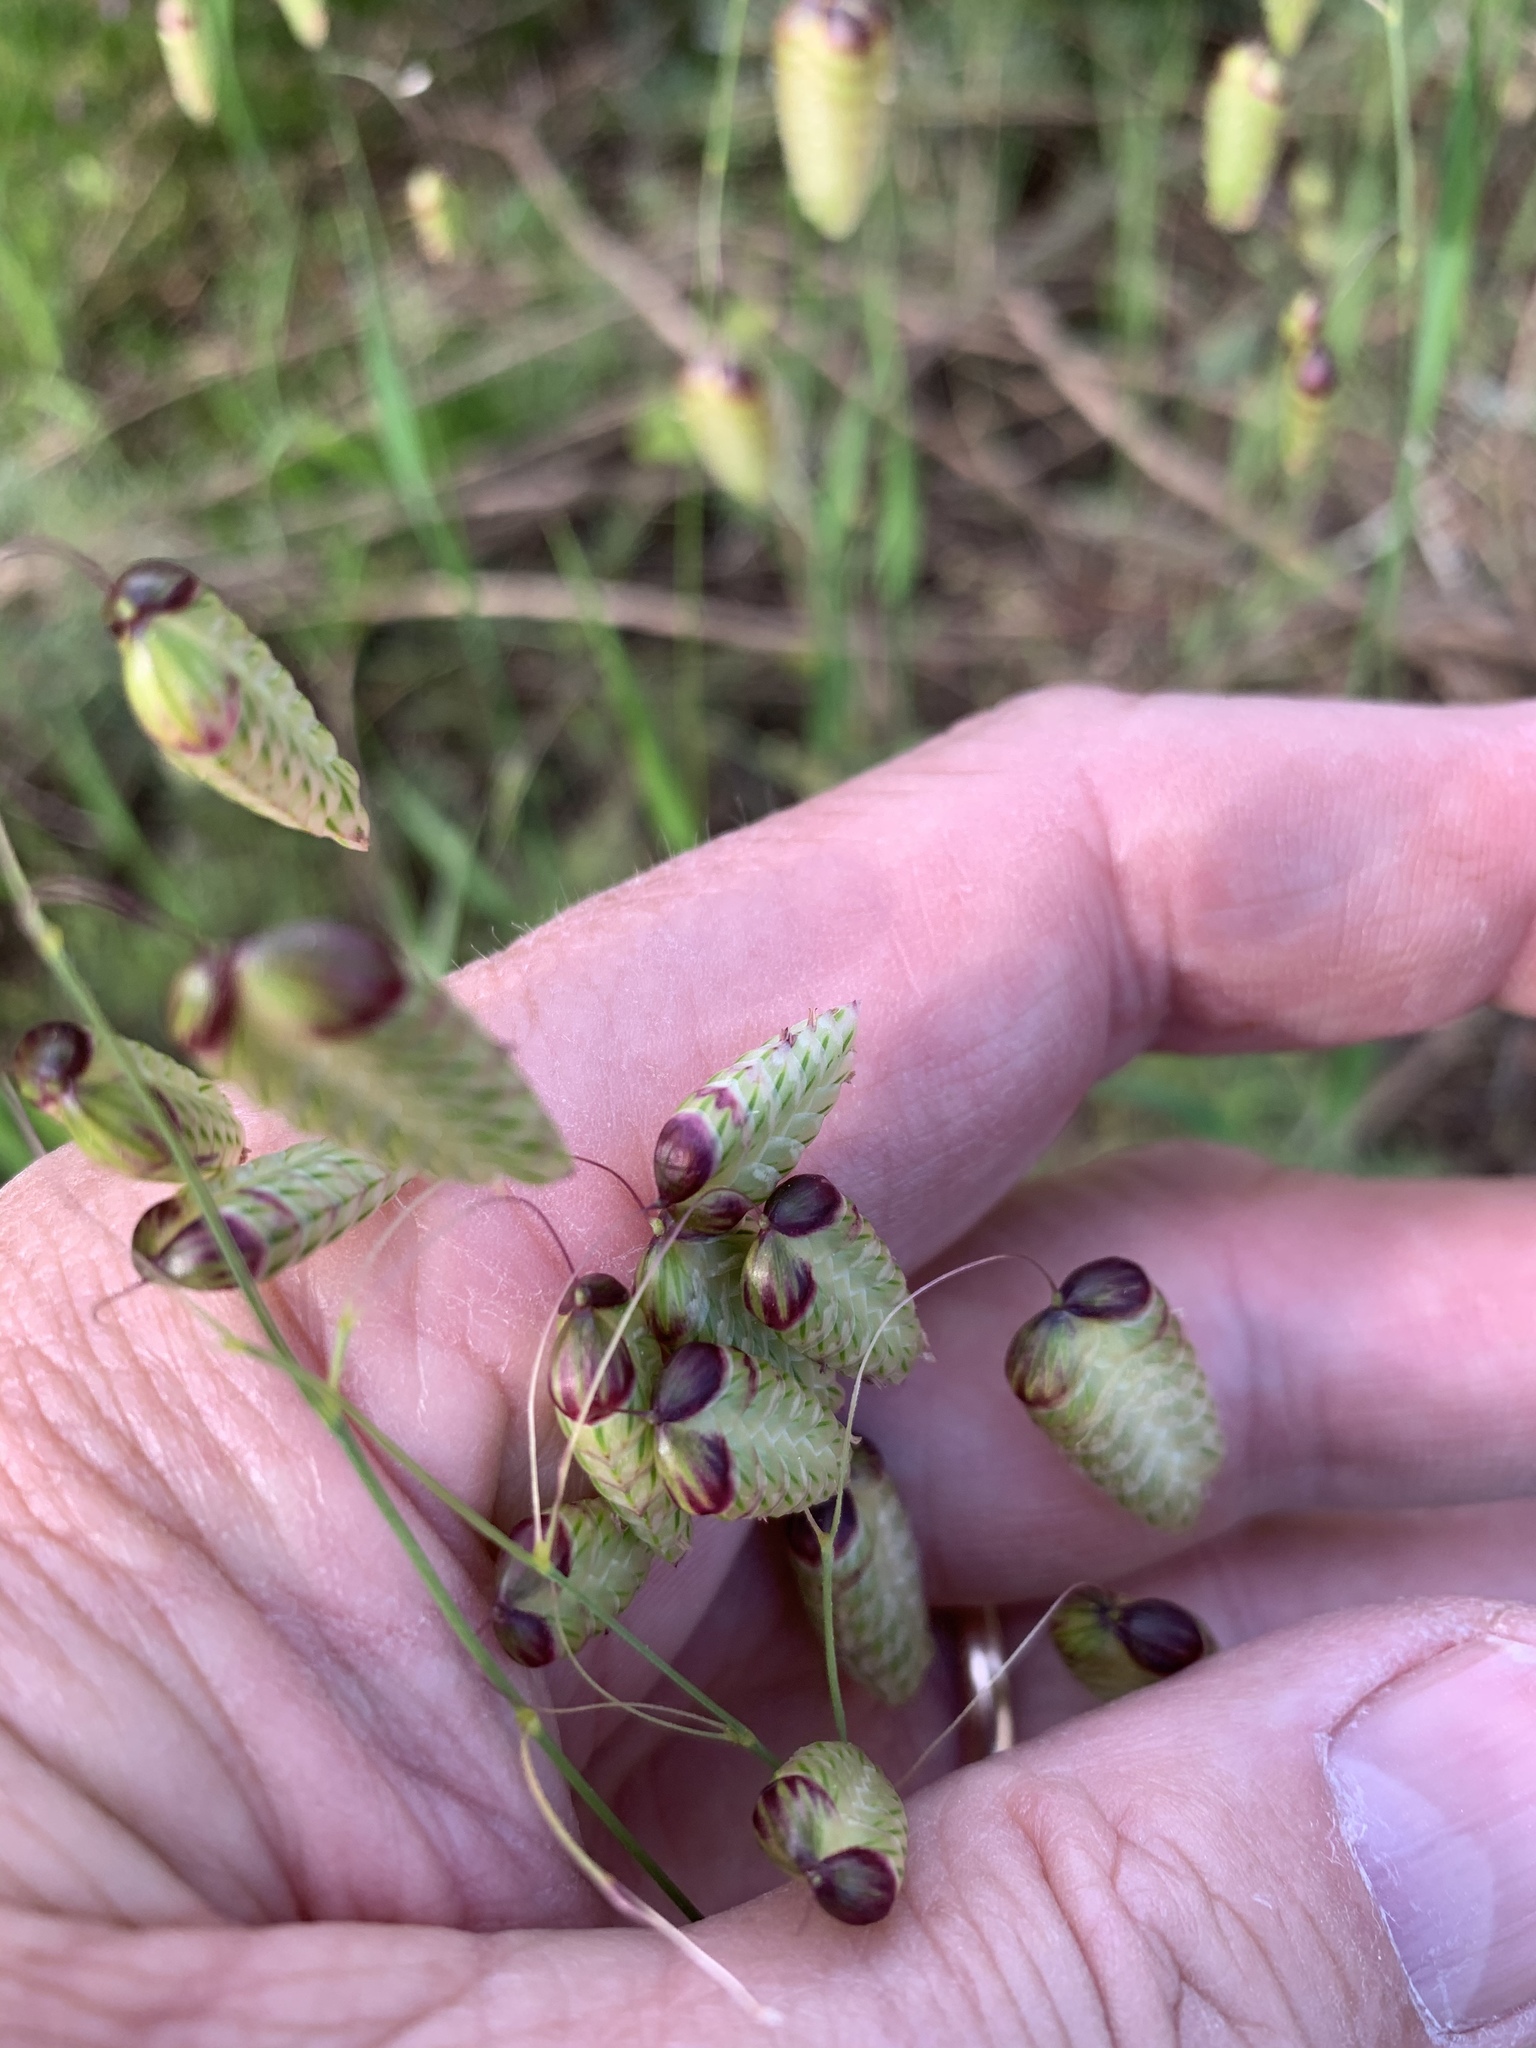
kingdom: Plantae
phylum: Tracheophyta
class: Liliopsida
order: Poales
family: Poaceae
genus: Briza
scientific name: Briza maxima
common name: Big quakinggrass
